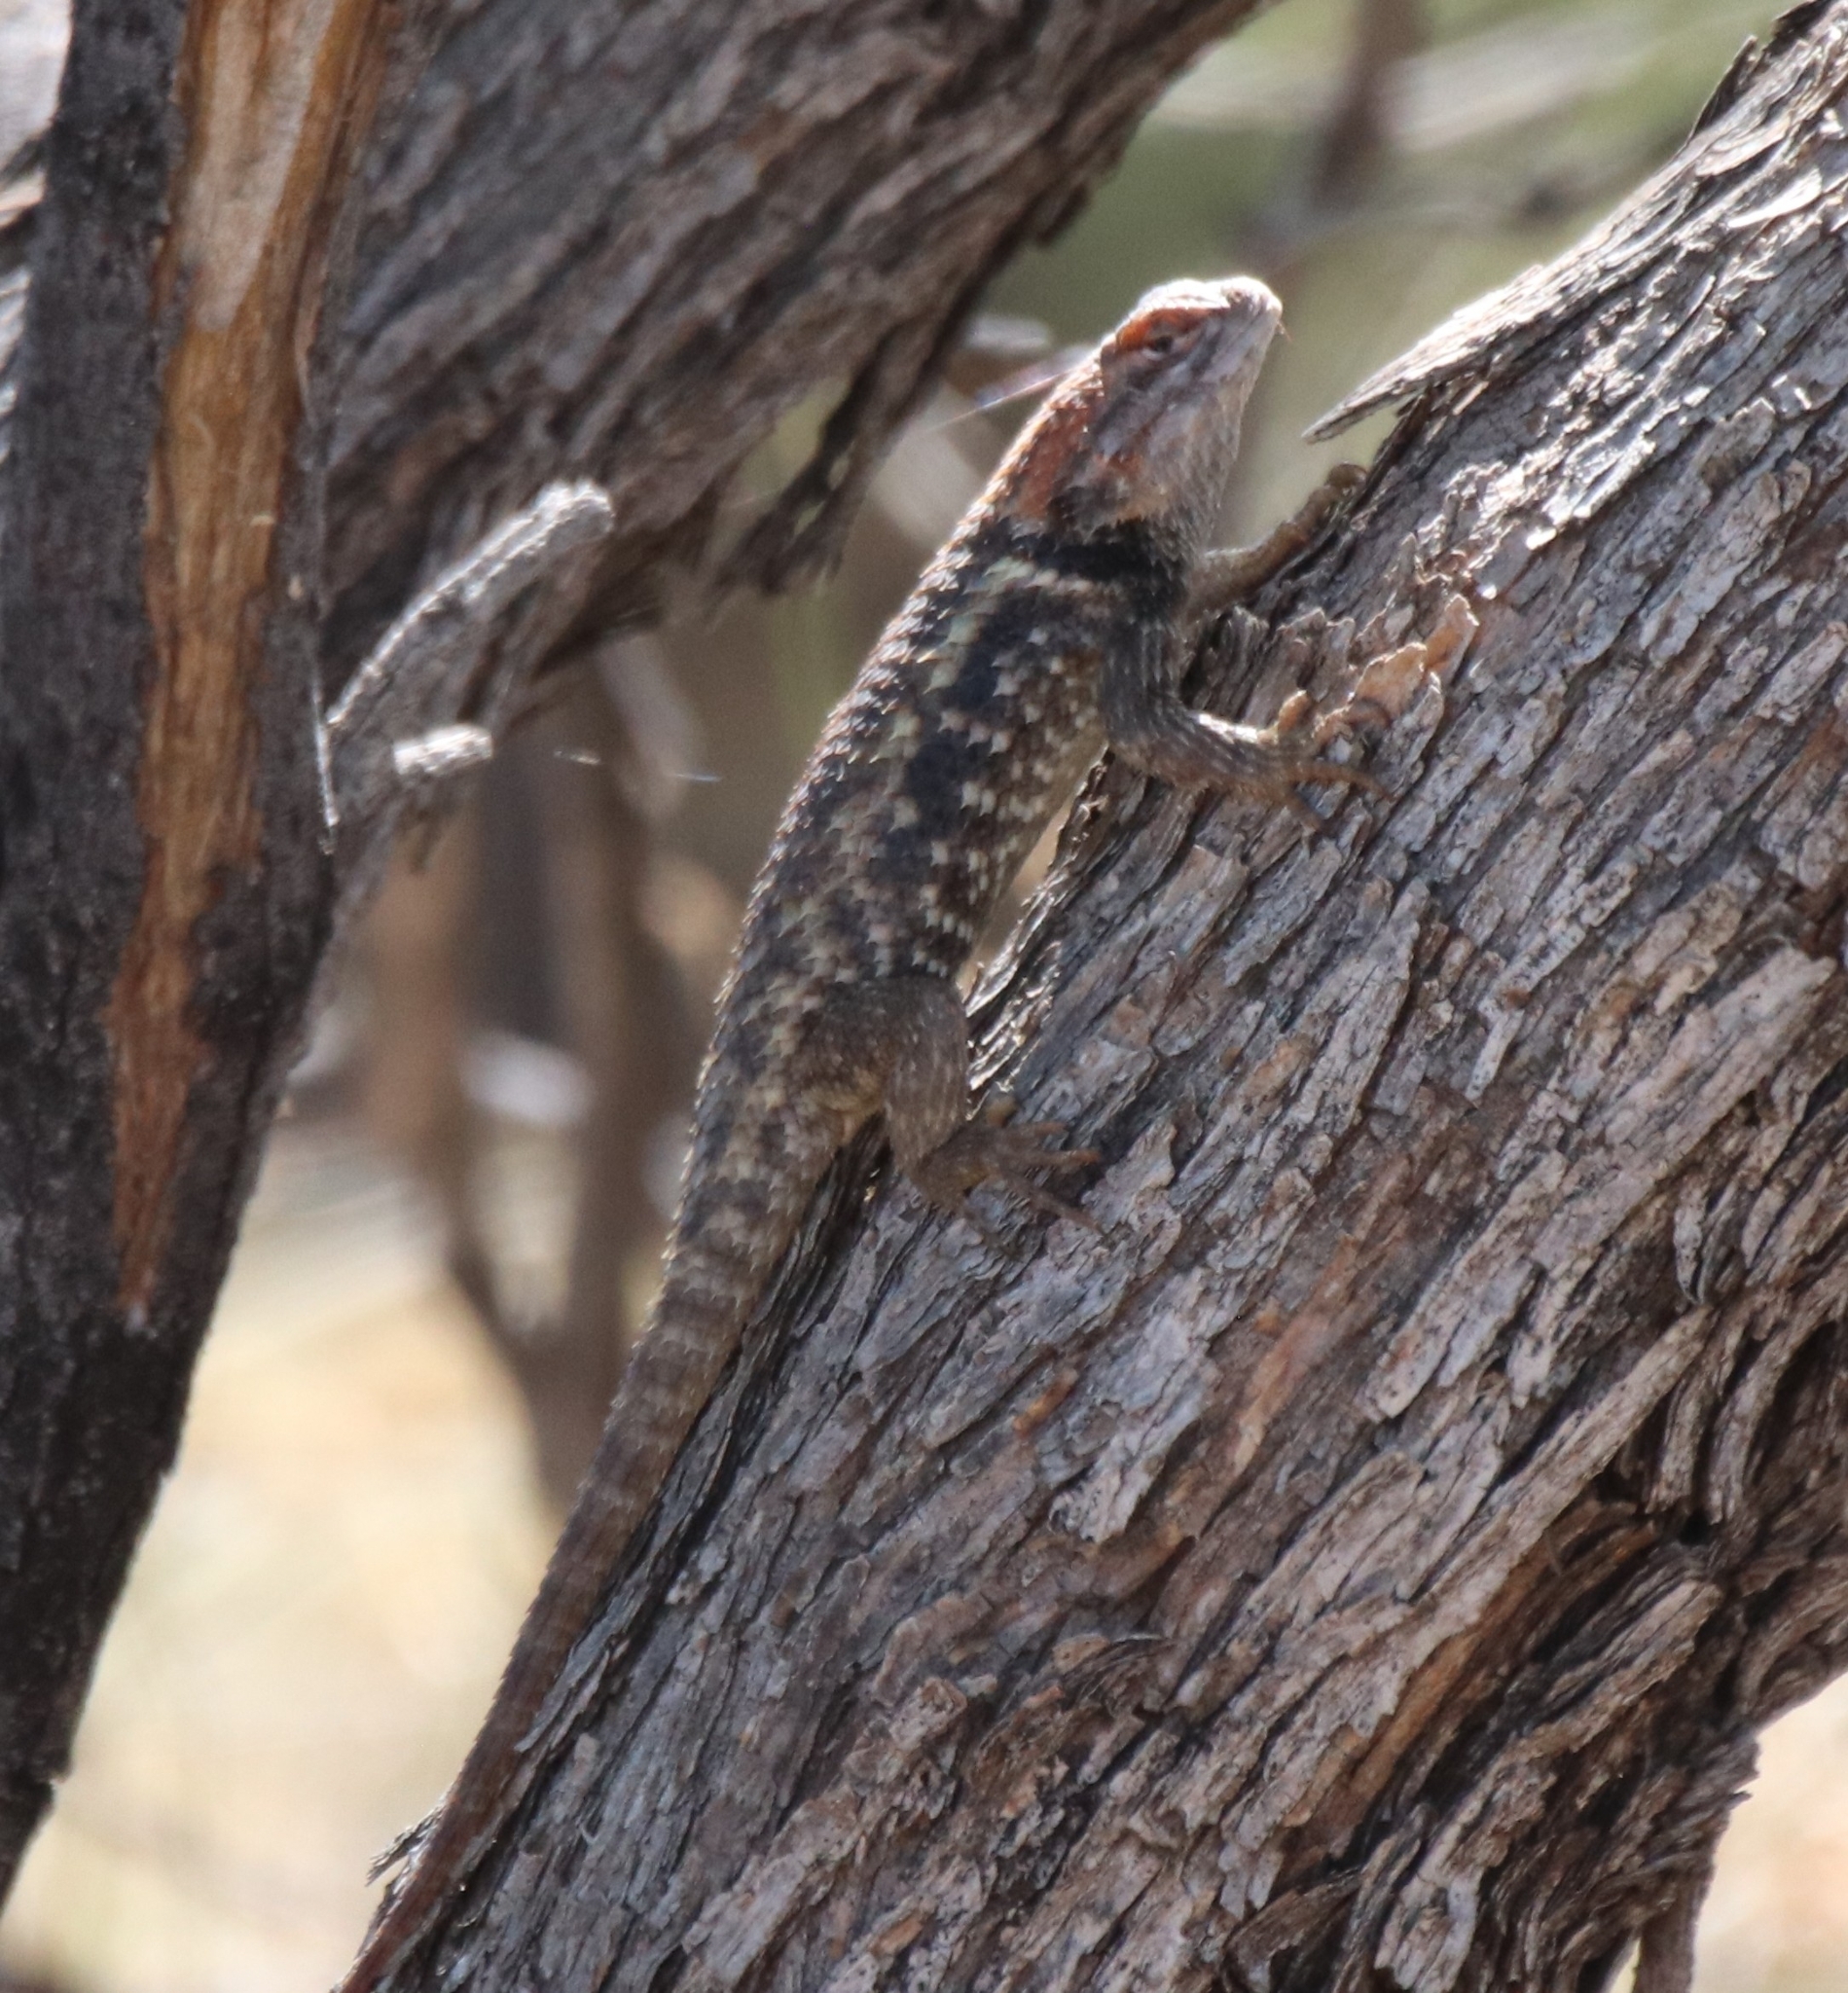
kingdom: Animalia
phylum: Chordata
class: Squamata
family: Phrynosomatidae
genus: Sceloporus
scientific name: Sceloporus magister
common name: Desert spiny lizard
